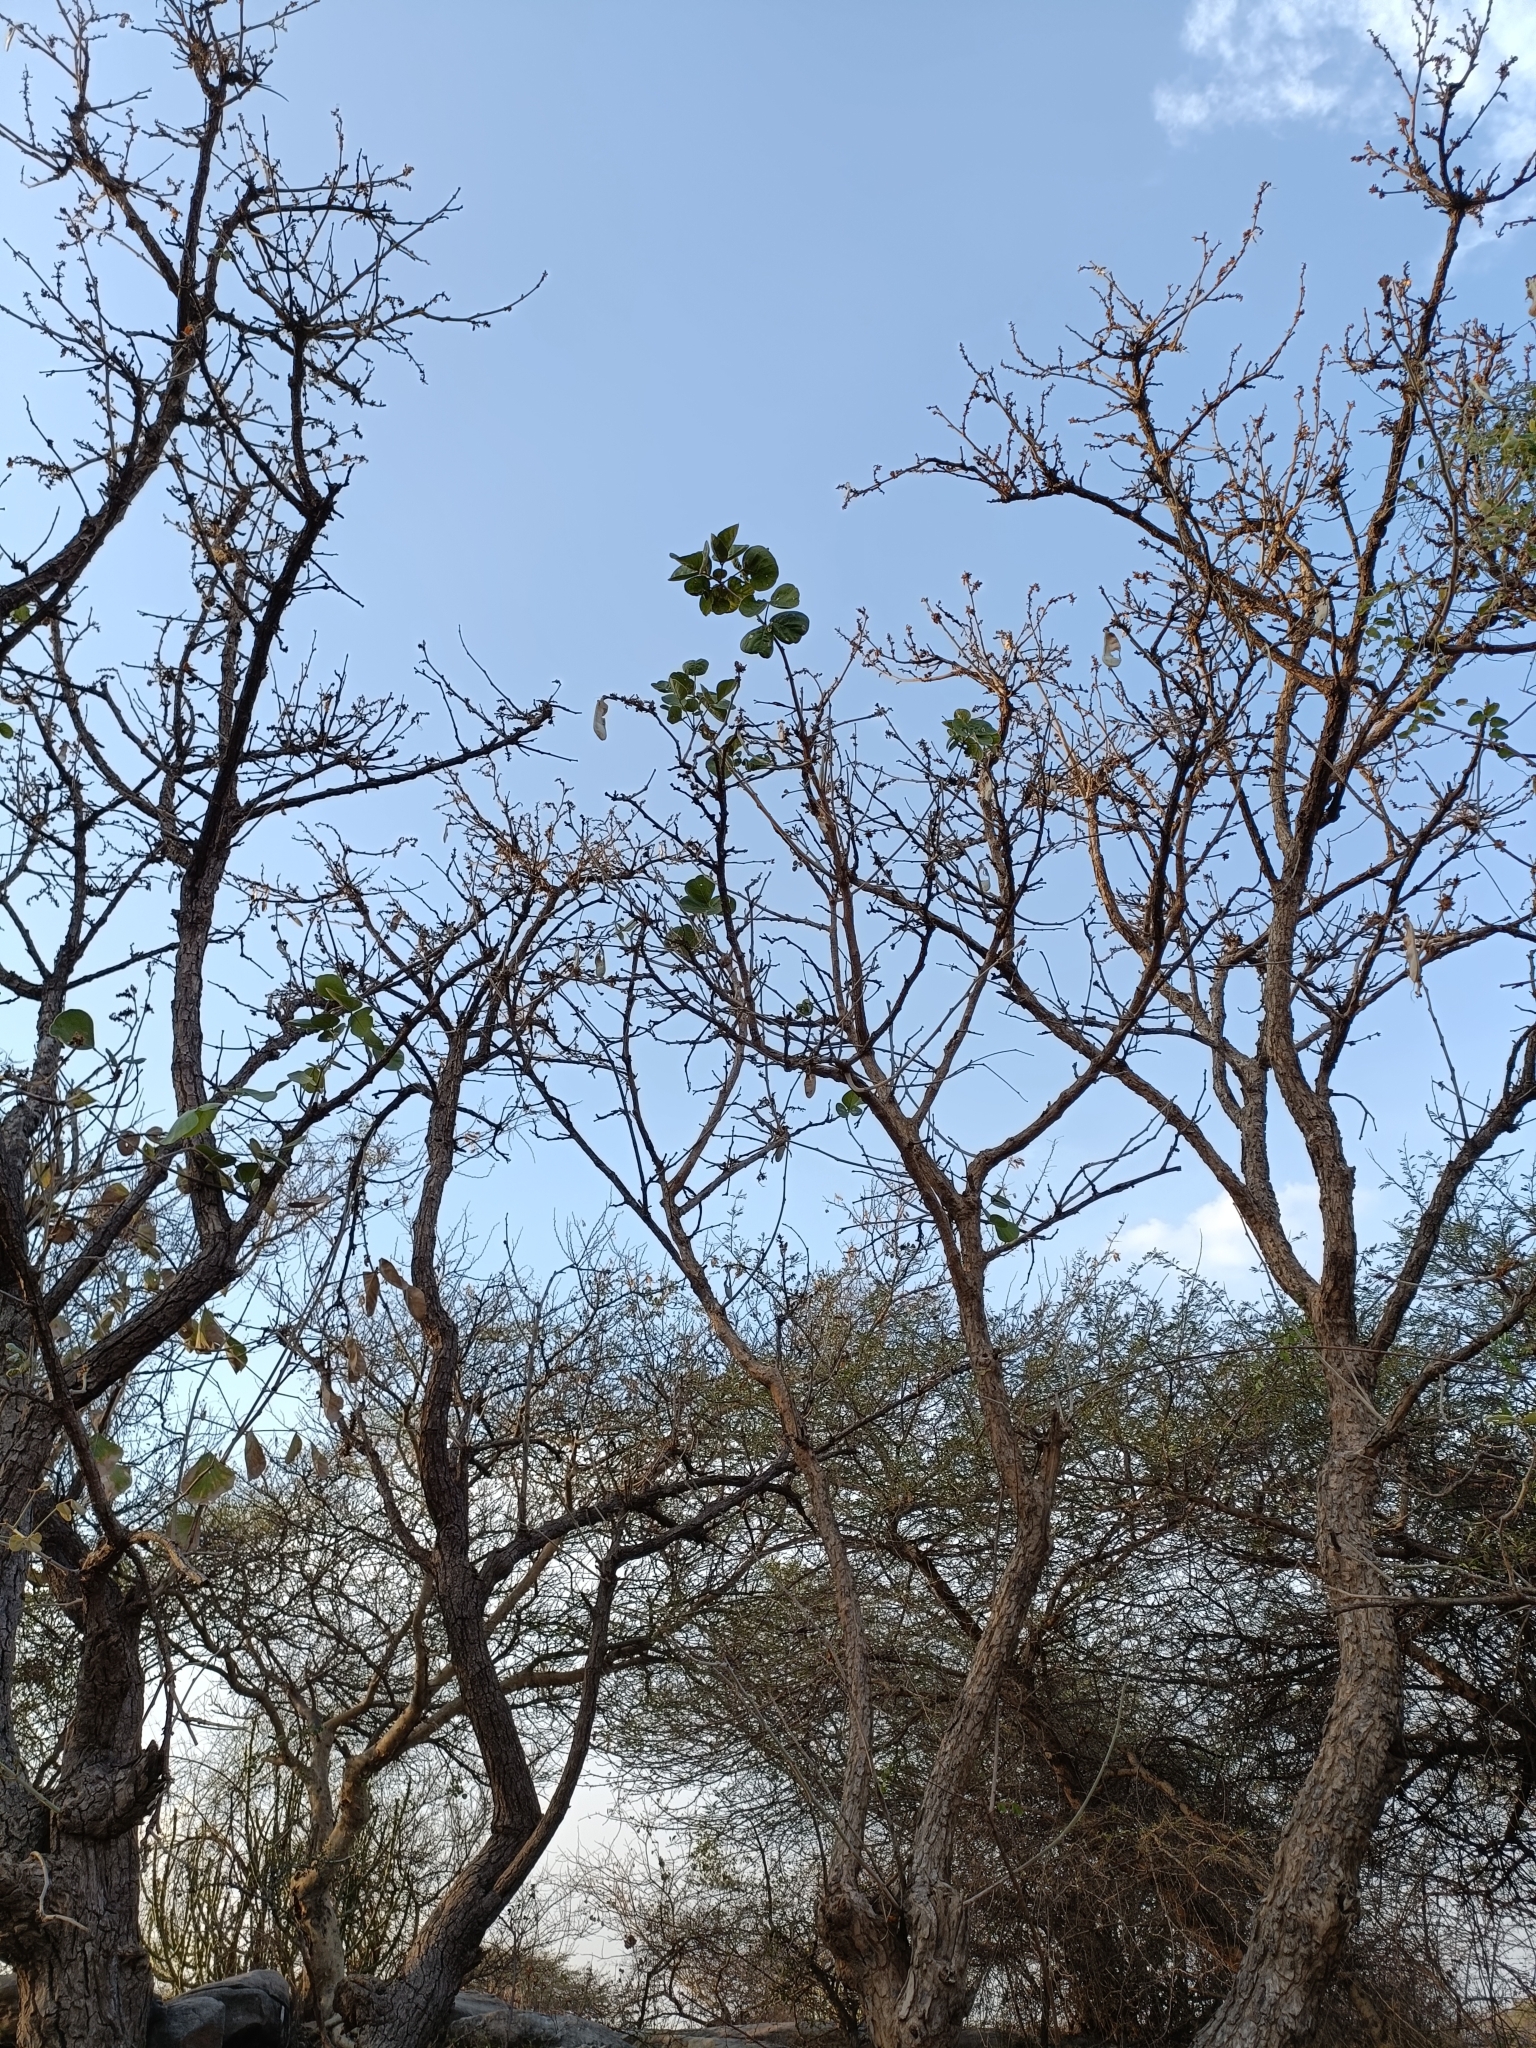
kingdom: Plantae
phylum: Tracheophyta
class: Magnoliopsida
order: Fabales
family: Fabaceae
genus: Butea
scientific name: Butea monosperma
